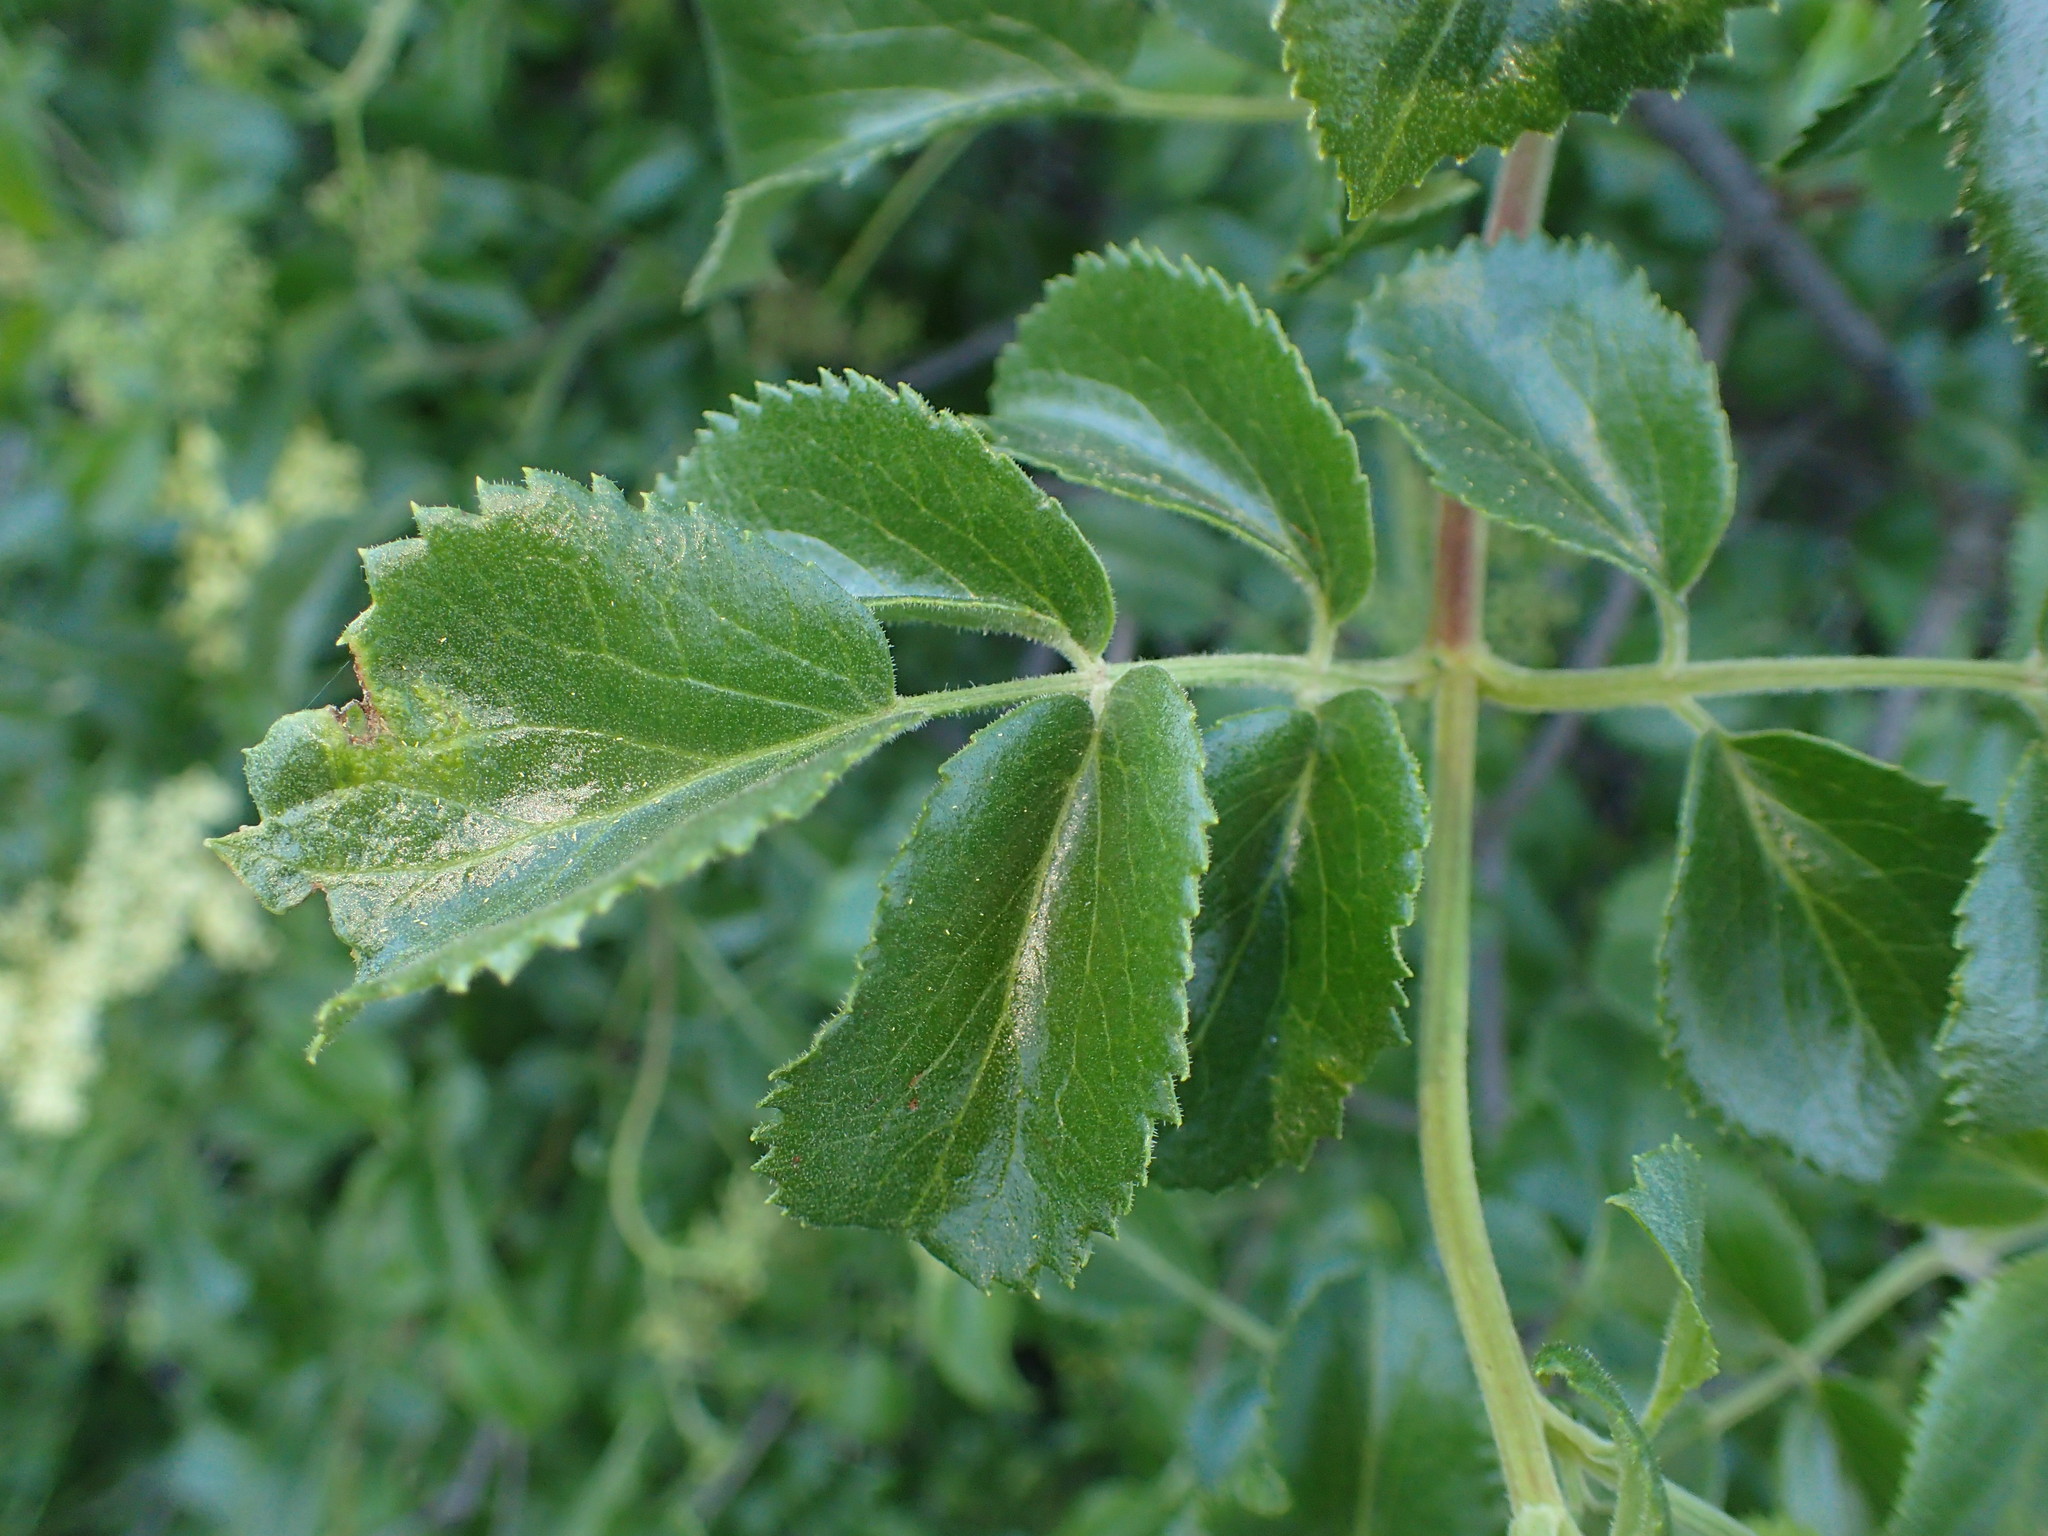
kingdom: Plantae
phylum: Tracheophyta
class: Magnoliopsida
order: Dipsacales
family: Viburnaceae
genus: Sambucus
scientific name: Sambucus cerulea
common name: Blue elder
